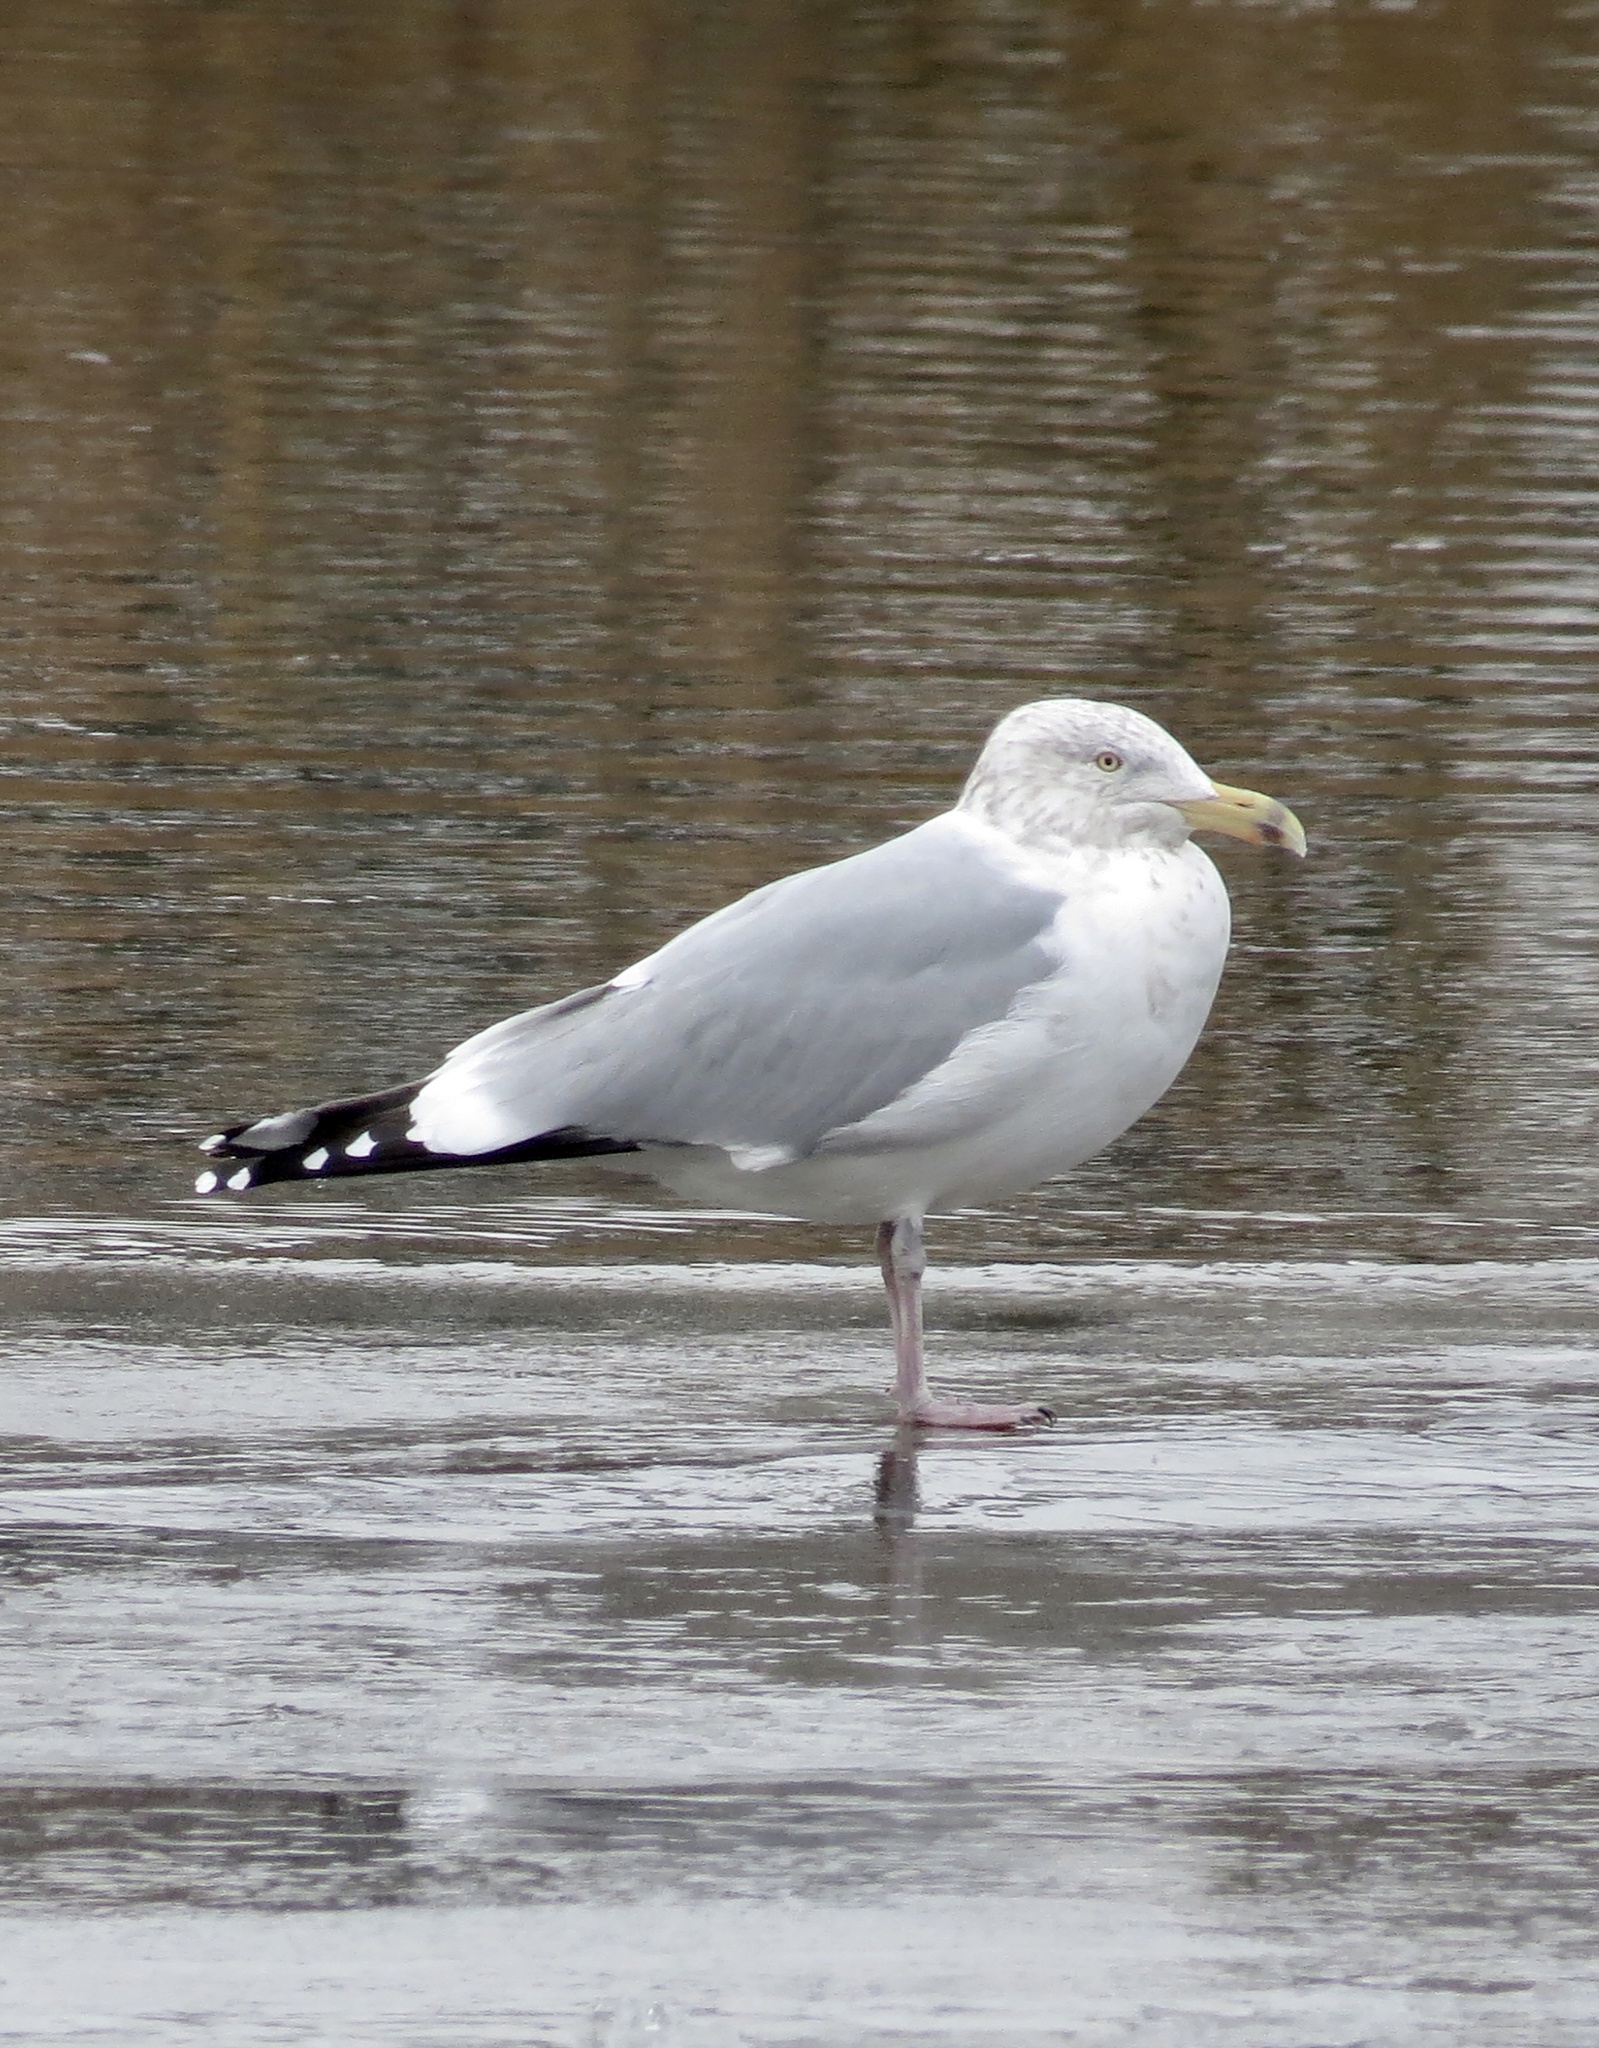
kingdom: Animalia
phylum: Chordata
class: Aves
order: Charadriiformes
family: Laridae
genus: Larus
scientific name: Larus argentatus
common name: Herring gull
